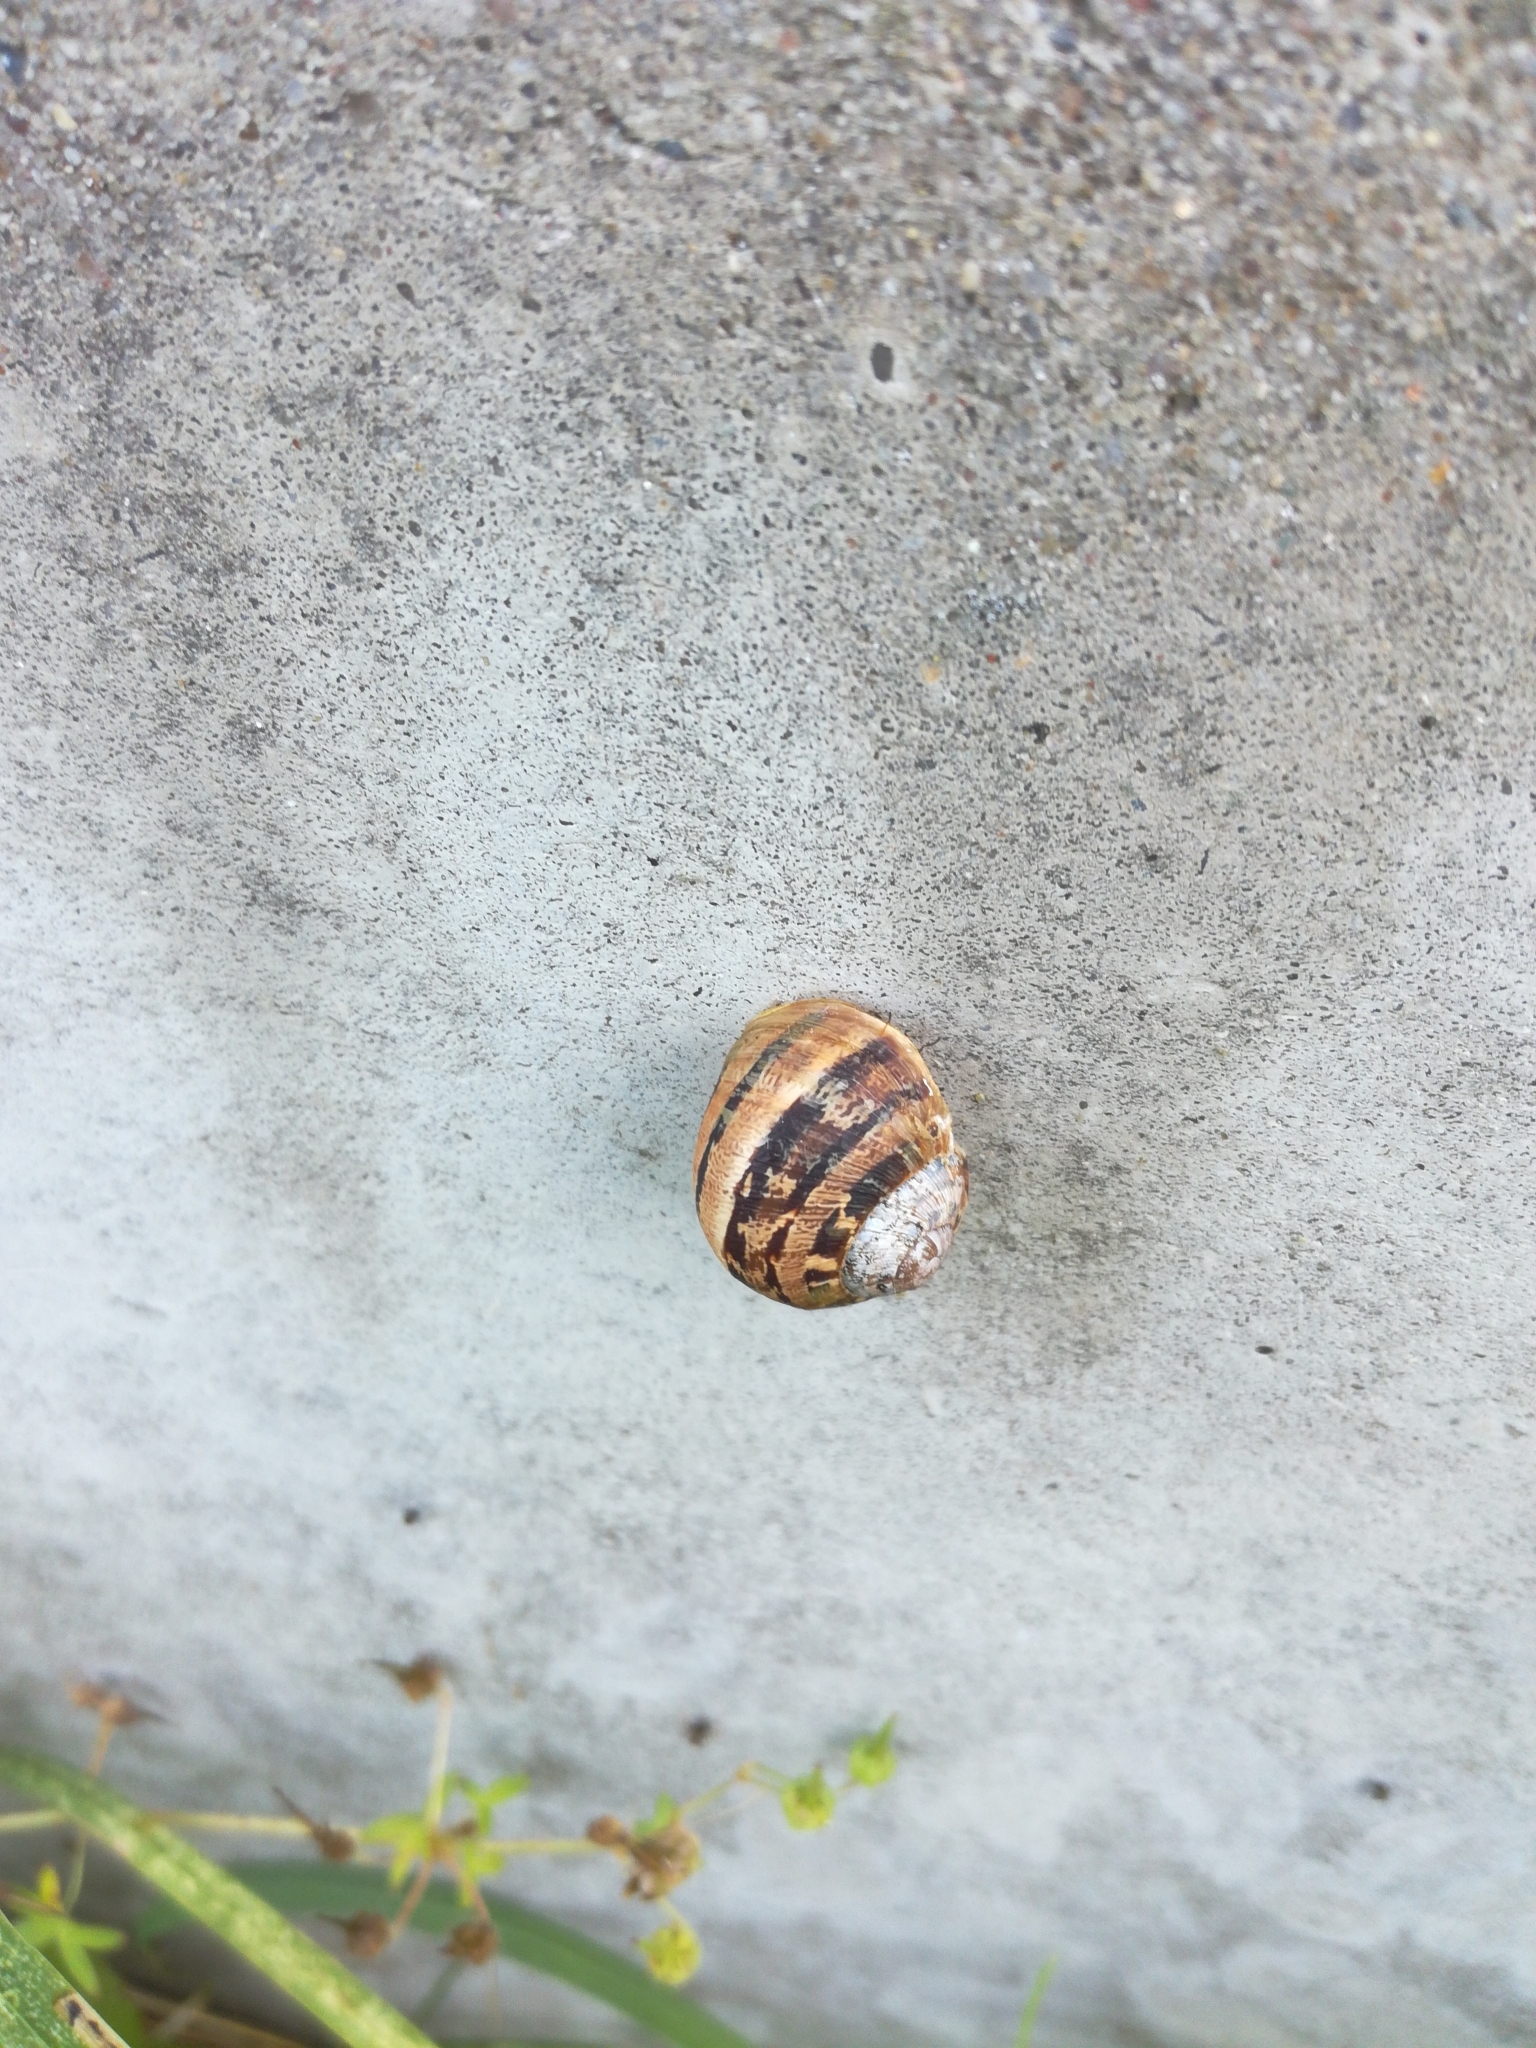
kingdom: Animalia
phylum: Mollusca
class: Gastropoda
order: Stylommatophora
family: Helicidae
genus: Cornu
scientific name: Cornu aspersum
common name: Brown garden snail
